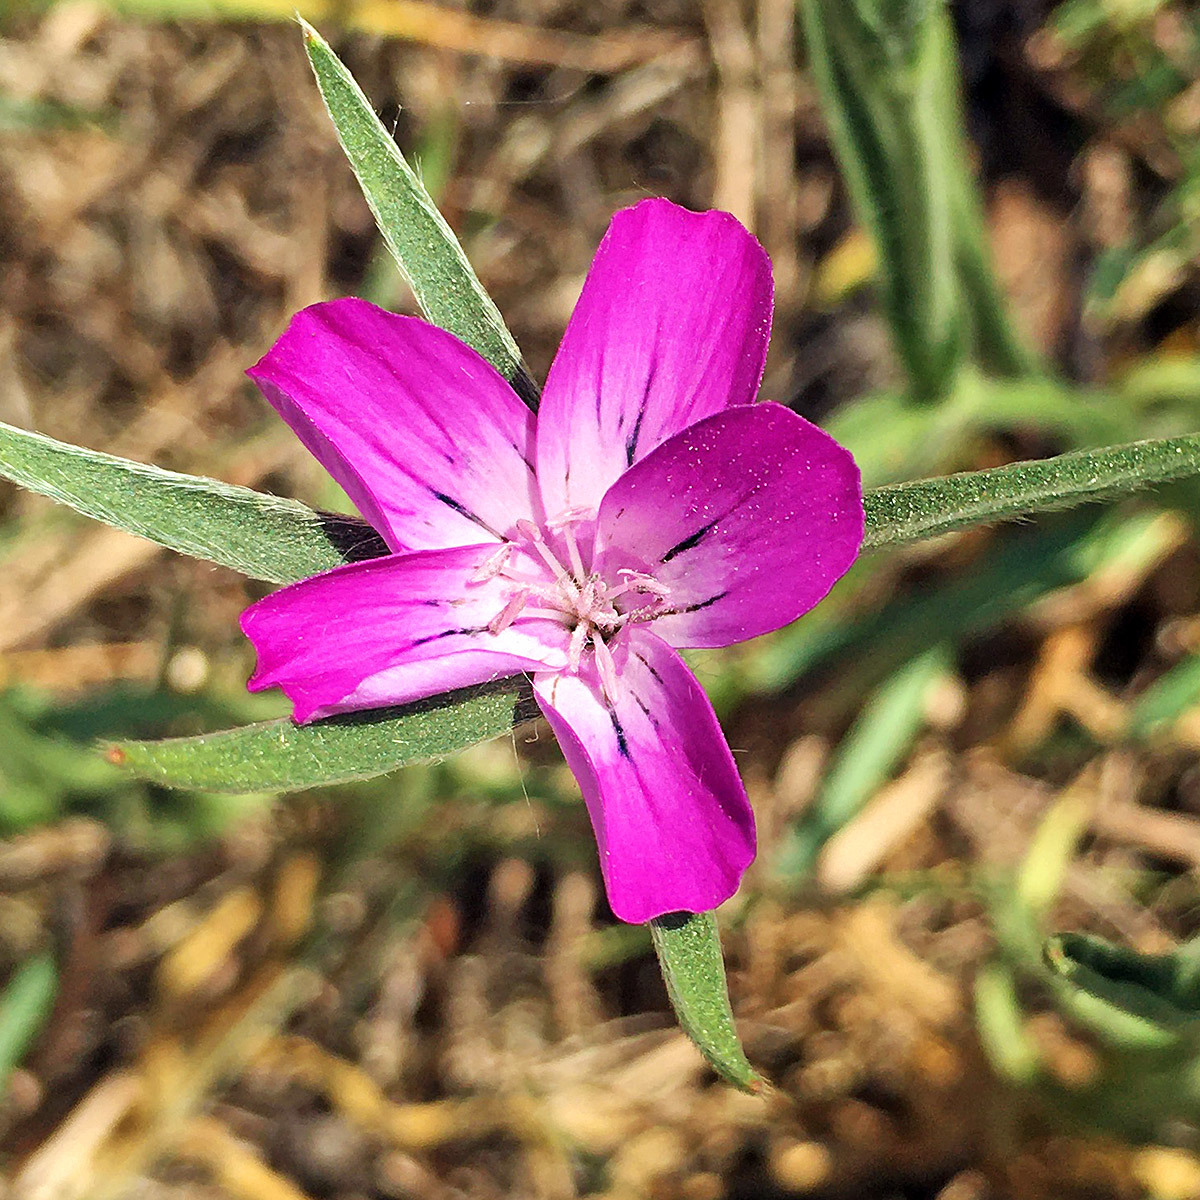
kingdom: Plantae
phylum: Tracheophyta
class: Magnoliopsida
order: Caryophyllales
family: Caryophyllaceae
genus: Agrostemma
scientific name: Agrostemma githago
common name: Common corncockle
